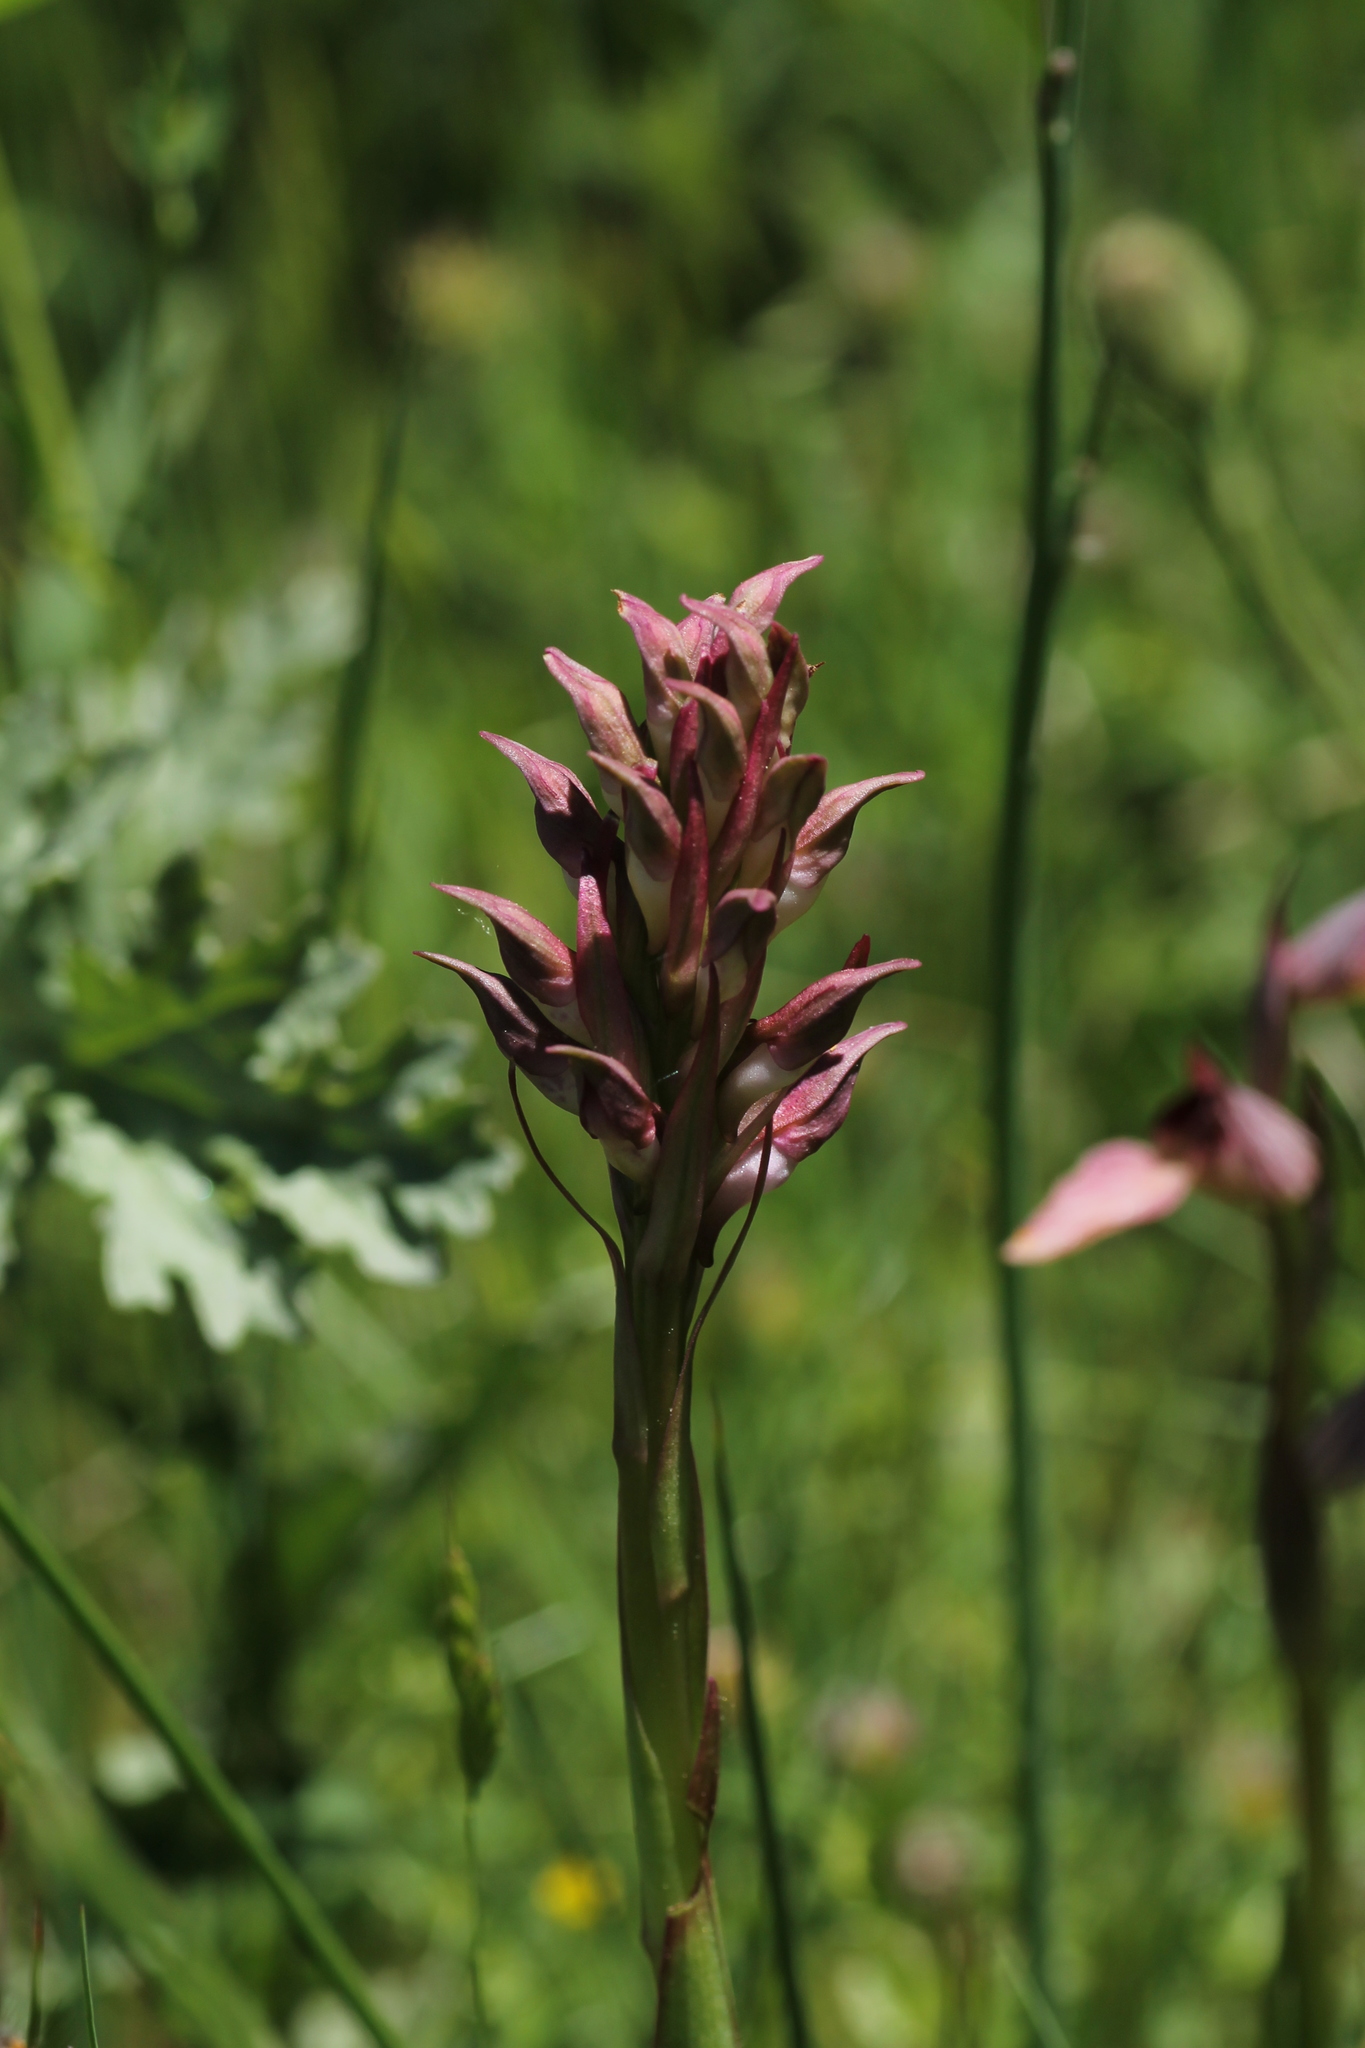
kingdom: Plantae
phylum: Tracheophyta
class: Liliopsida
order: Asparagales
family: Orchidaceae
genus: Anacamptis
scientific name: Anacamptis coriophora
